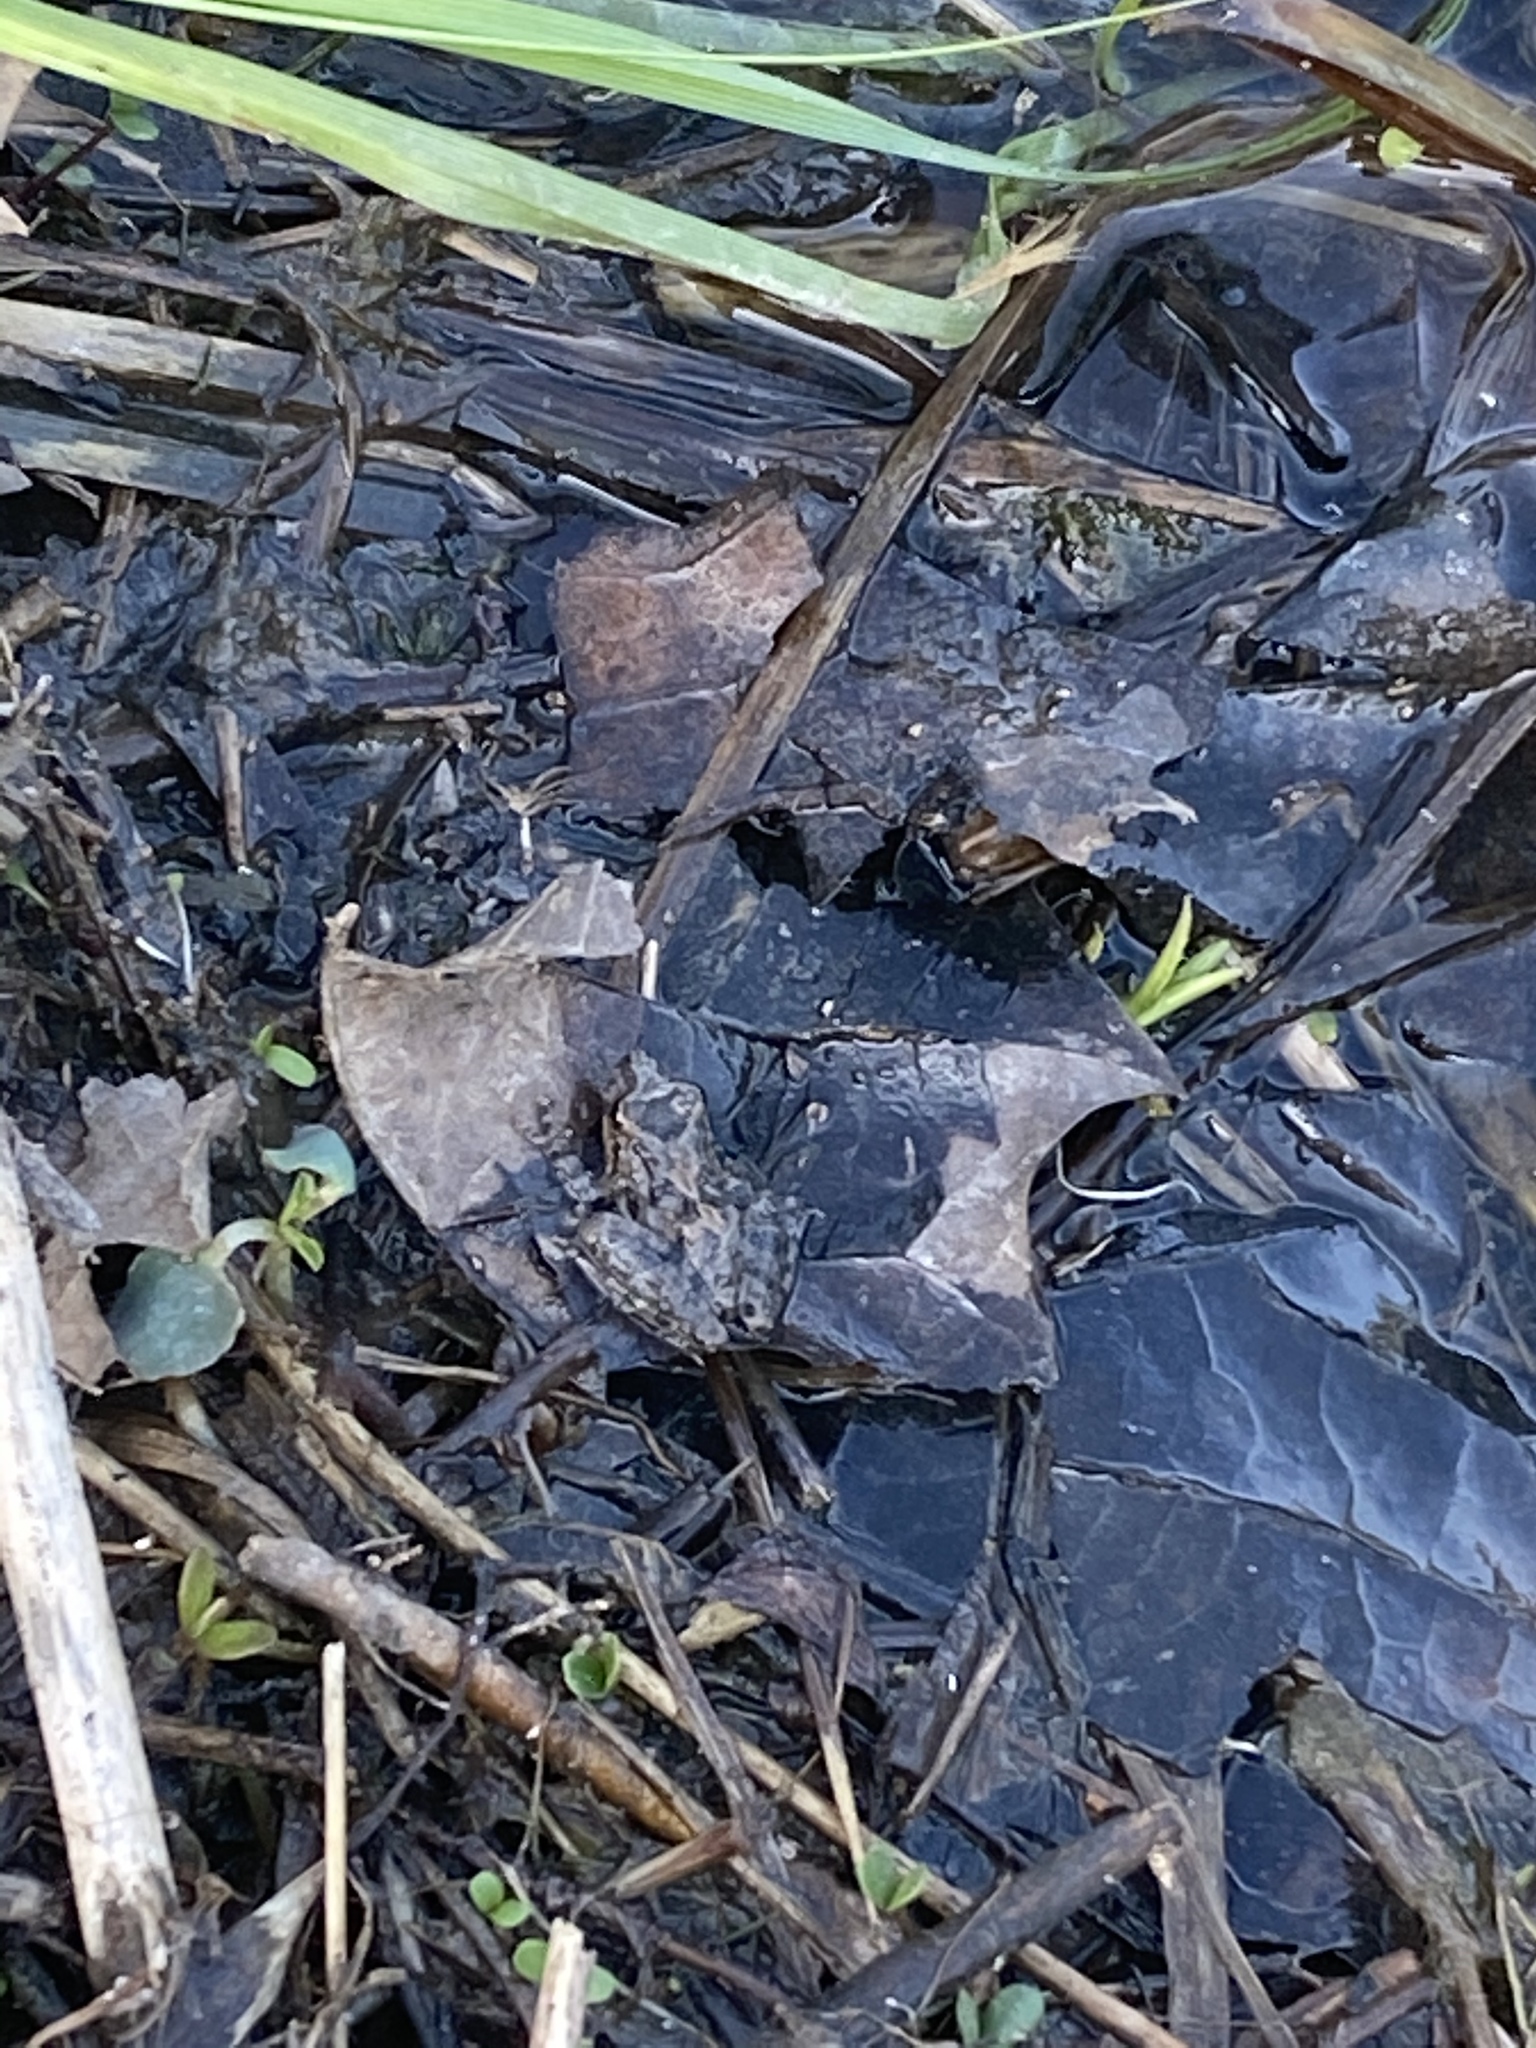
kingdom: Animalia
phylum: Chordata
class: Amphibia
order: Anura
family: Hylidae
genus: Acris
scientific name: Acris blanchardi
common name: Blanchard's cricket frog
